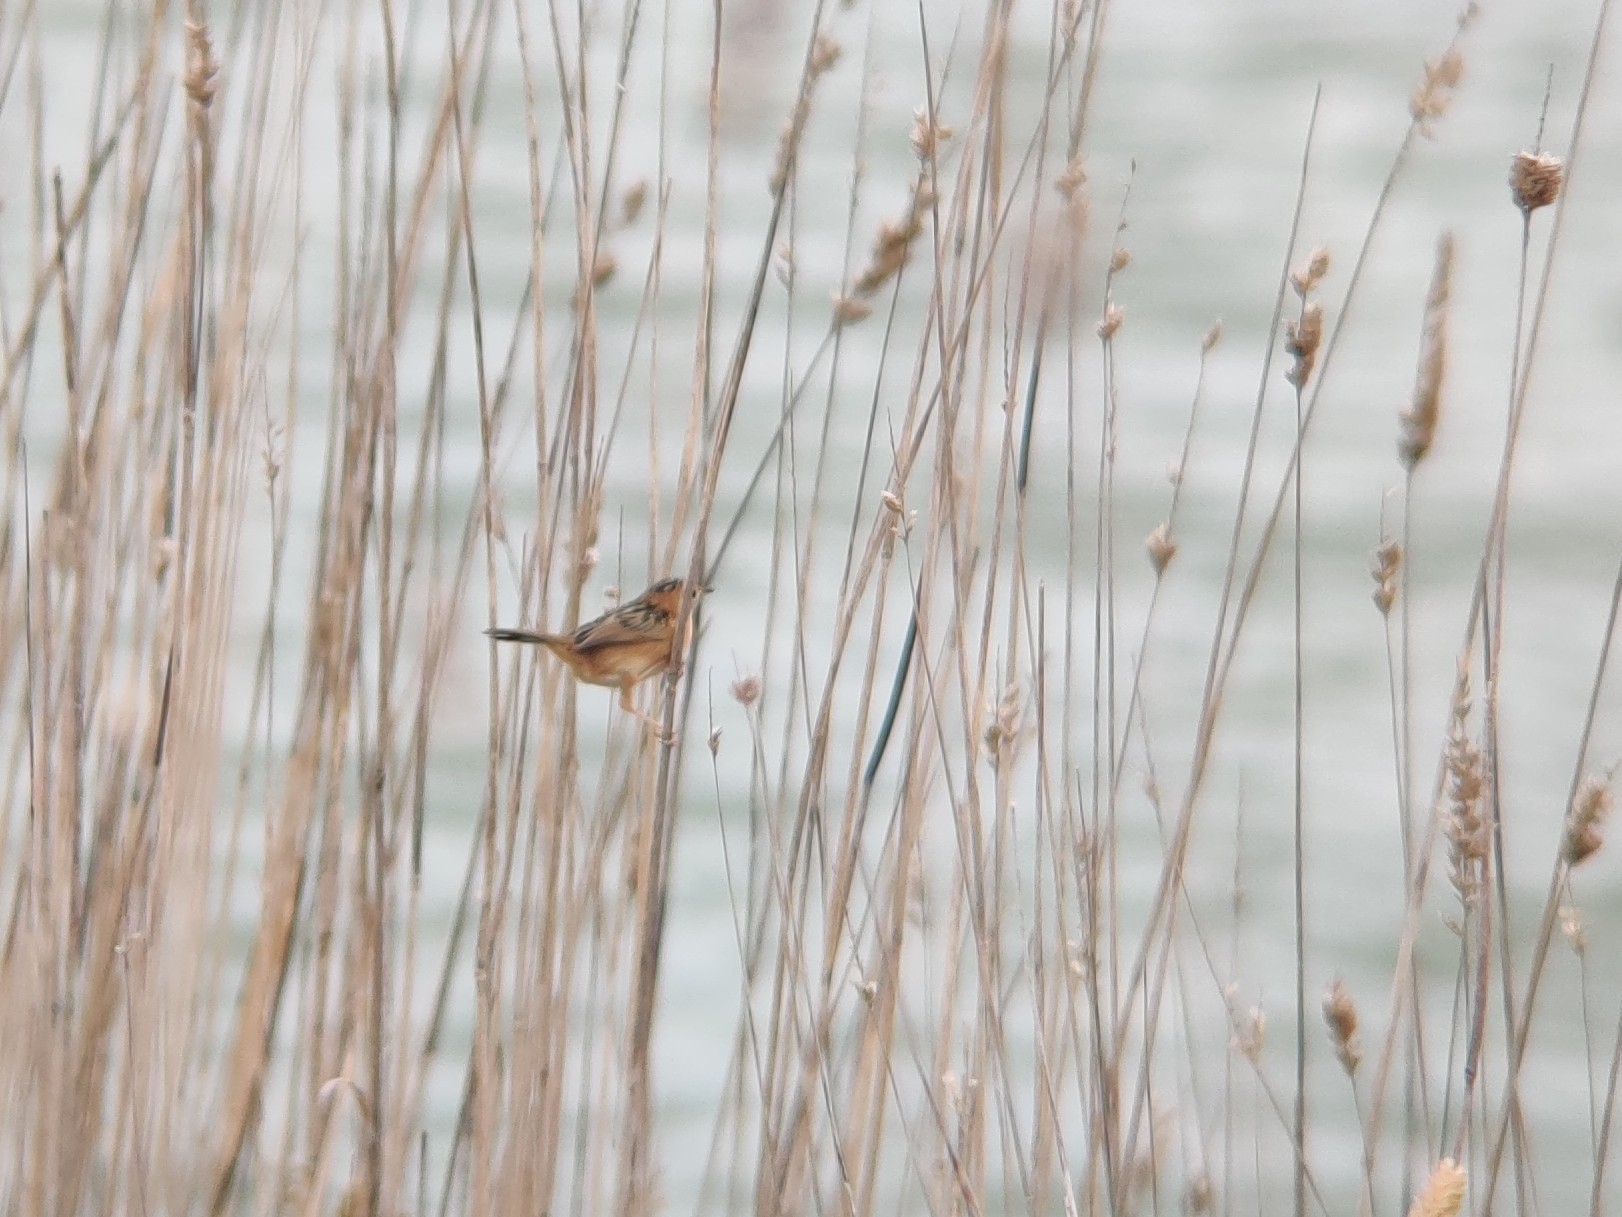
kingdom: Animalia
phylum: Chordata
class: Aves
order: Passeriformes
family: Cisticolidae
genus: Cisticola
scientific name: Cisticola exilis
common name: Golden-headed cisticola
